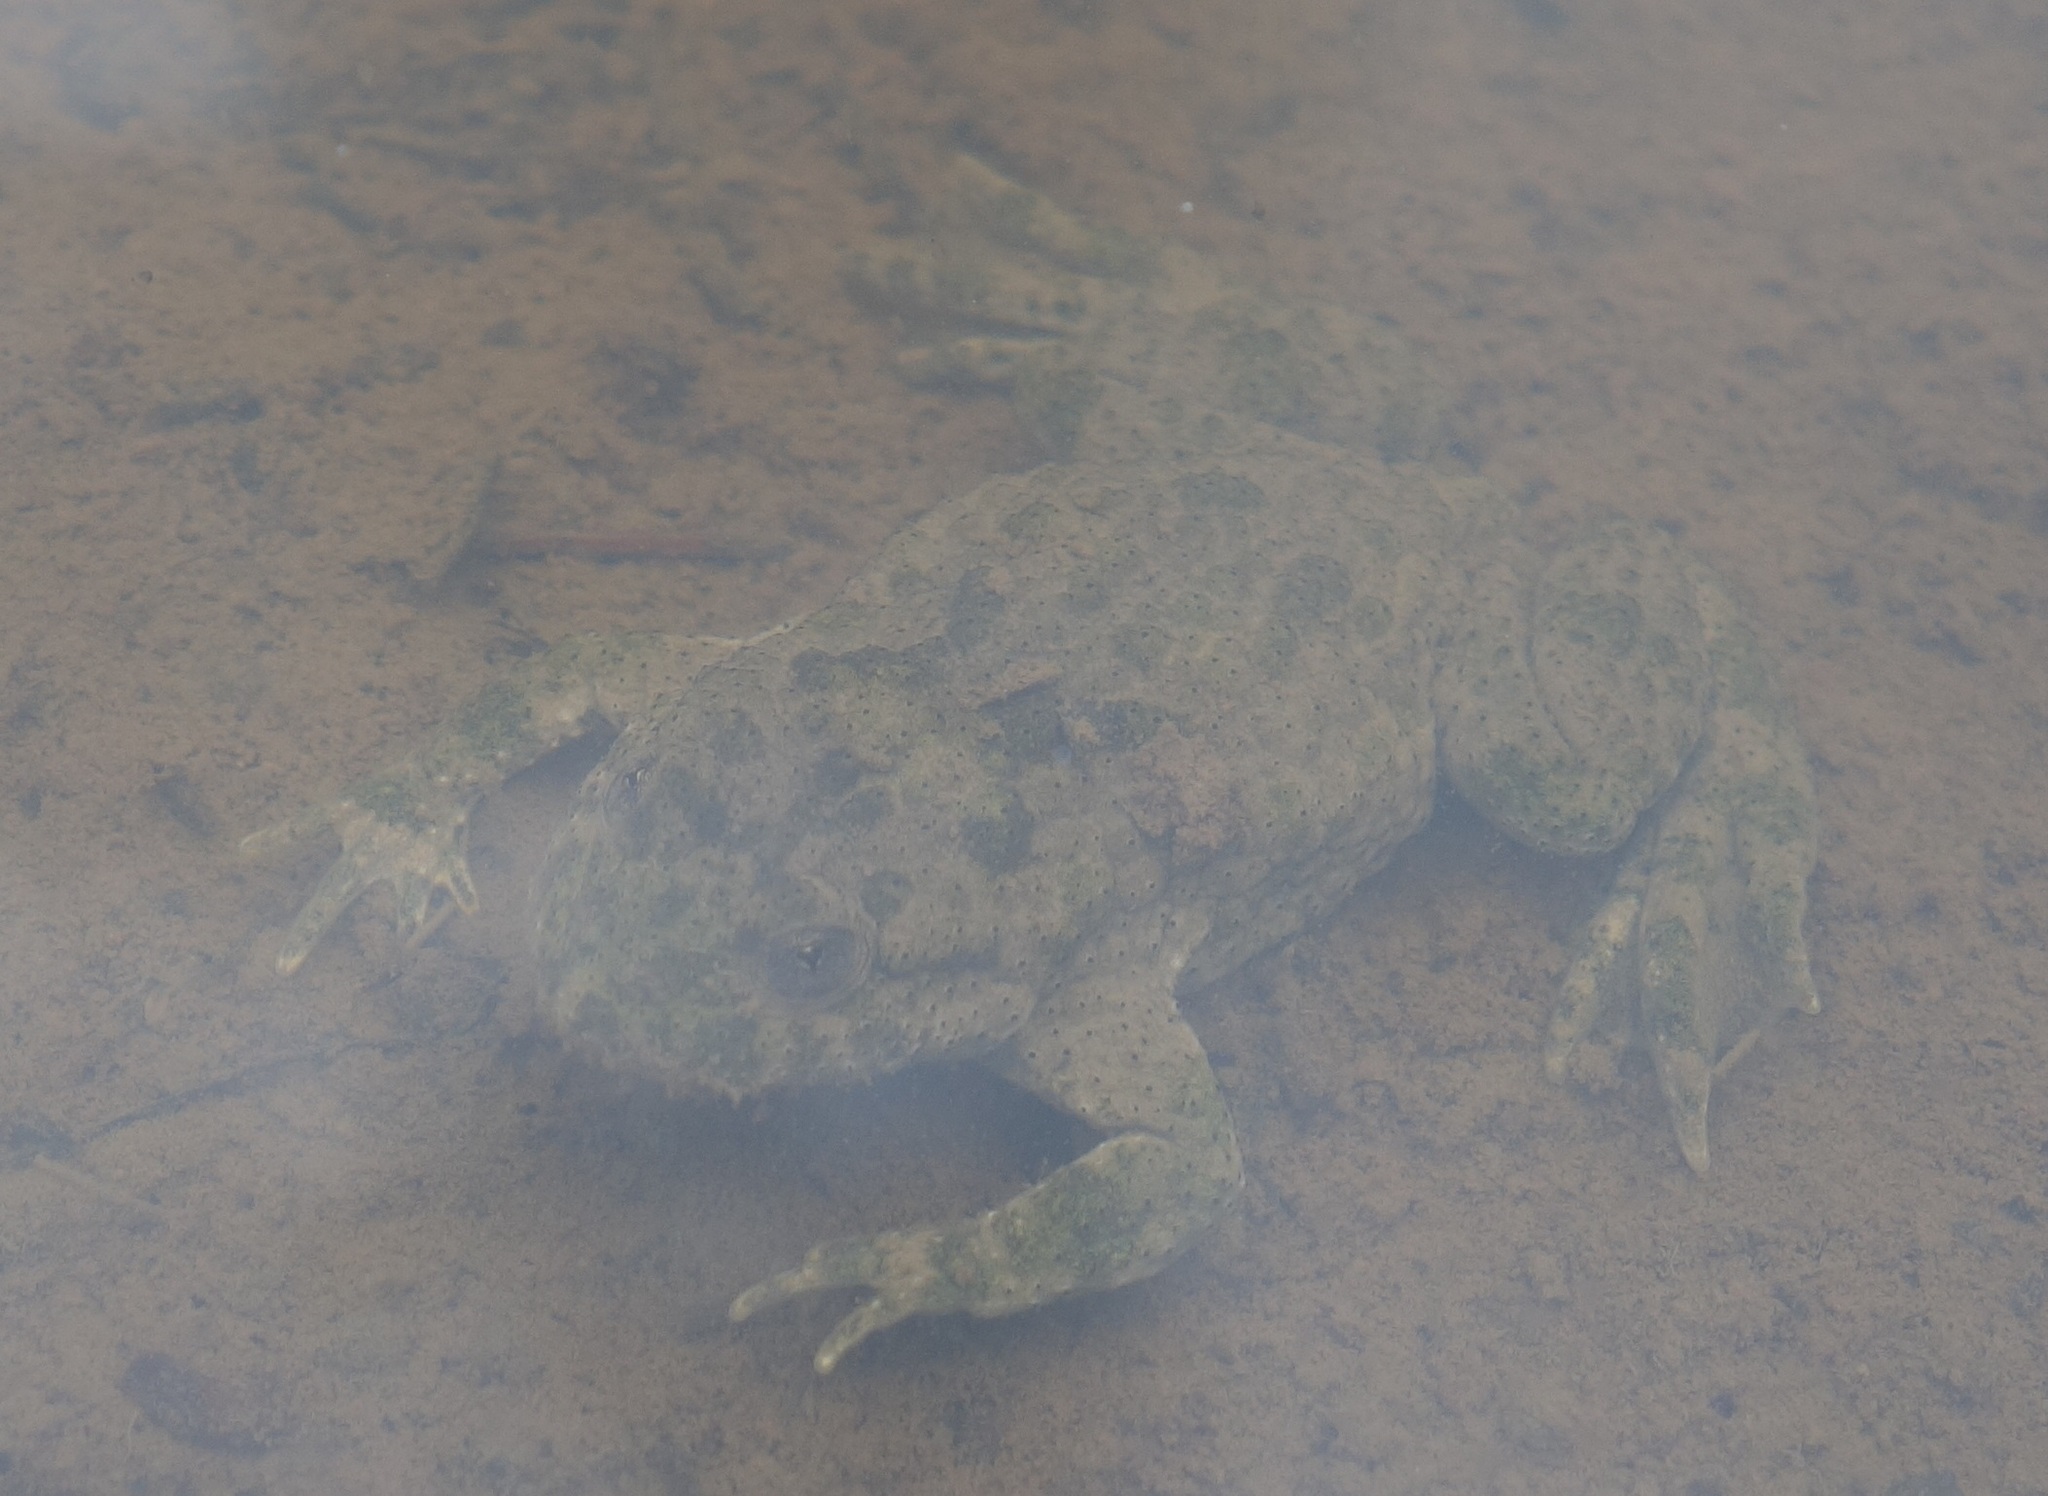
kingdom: Animalia
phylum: Chordata
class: Amphibia
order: Anura
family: Bombinatoridae
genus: Bombina
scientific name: Bombina variegata
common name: Yellow-bellied toad
